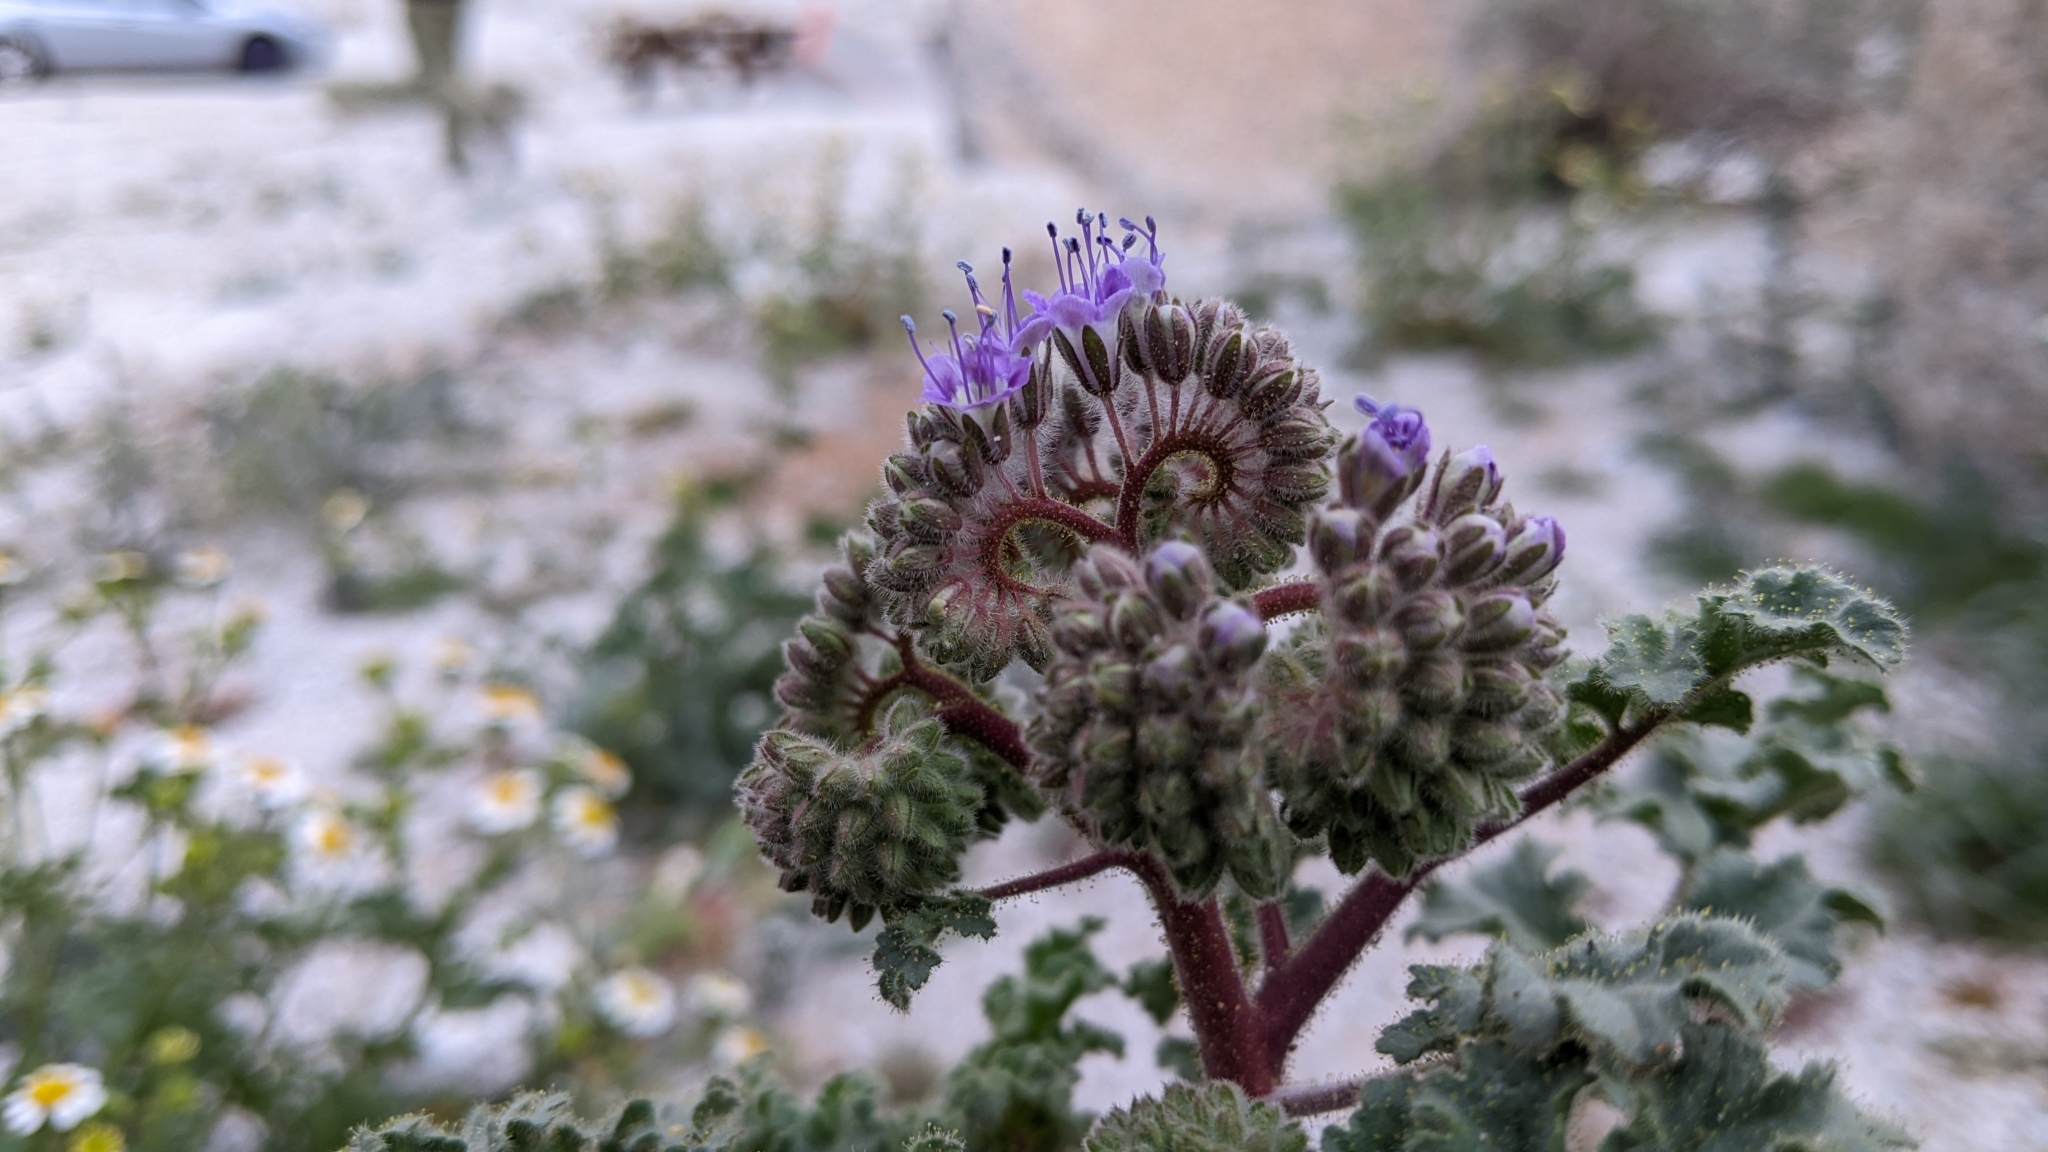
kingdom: Plantae
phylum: Tracheophyta
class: Magnoliopsida
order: Boraginales
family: Hydrophyllaceae
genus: Phacelia
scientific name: Phacelia pedicellata
